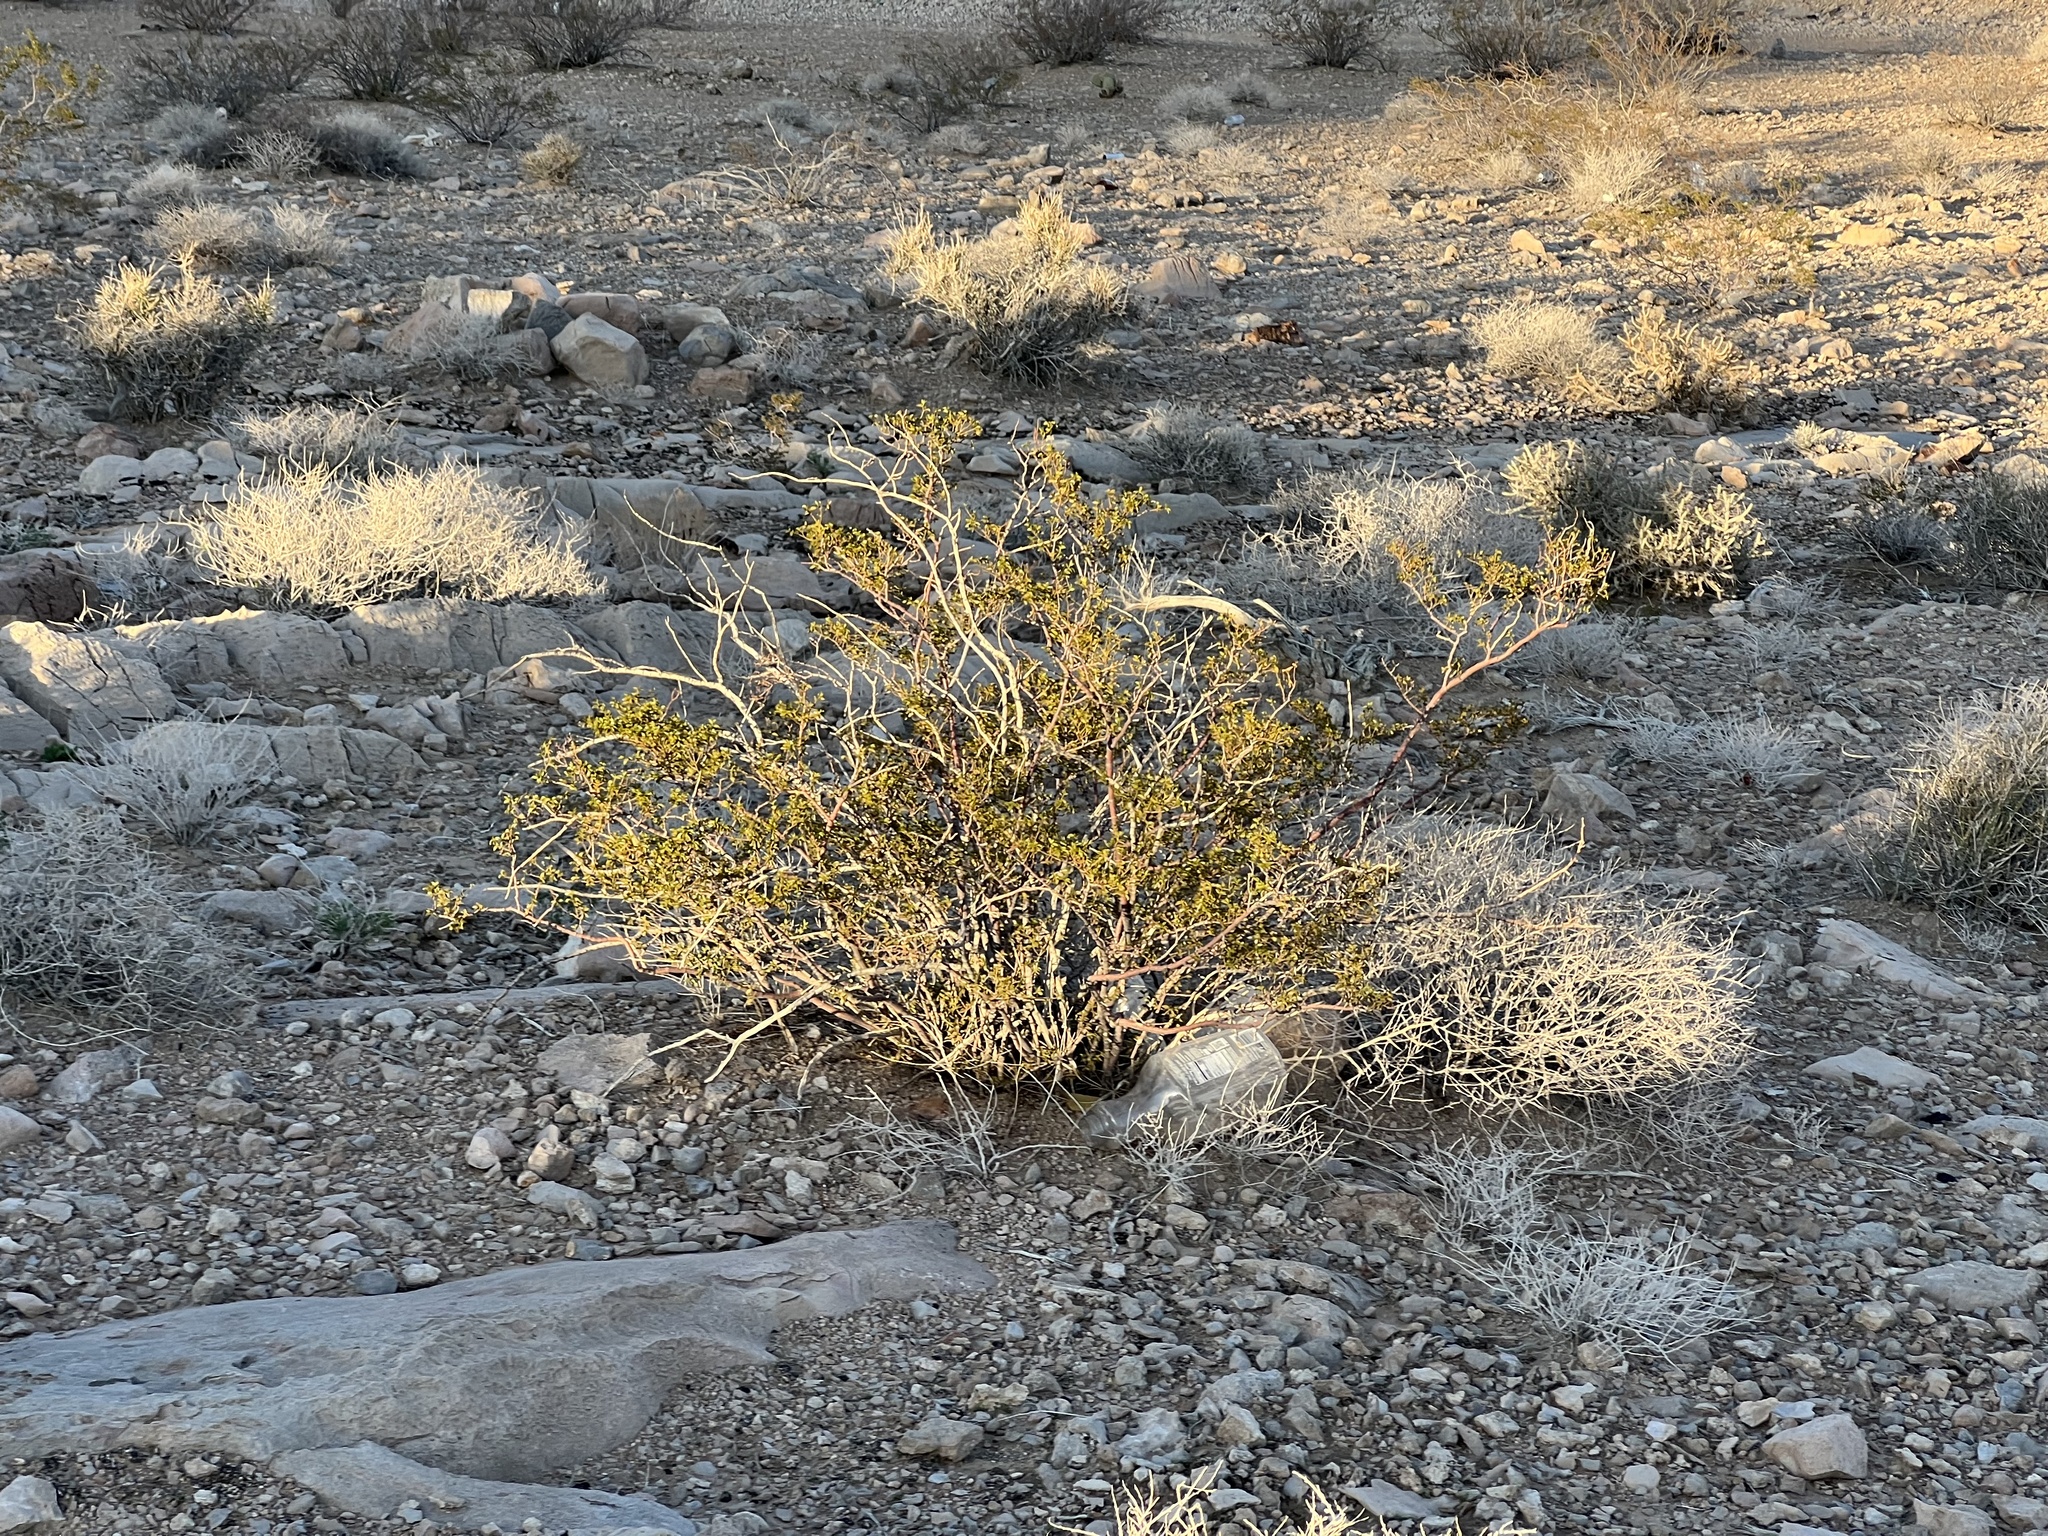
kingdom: Plantae
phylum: Tracheophyta
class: Magnoliopsida
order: Zygophyllales
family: Zygophyllaceae
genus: Larrea
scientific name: Larrea tridentata
